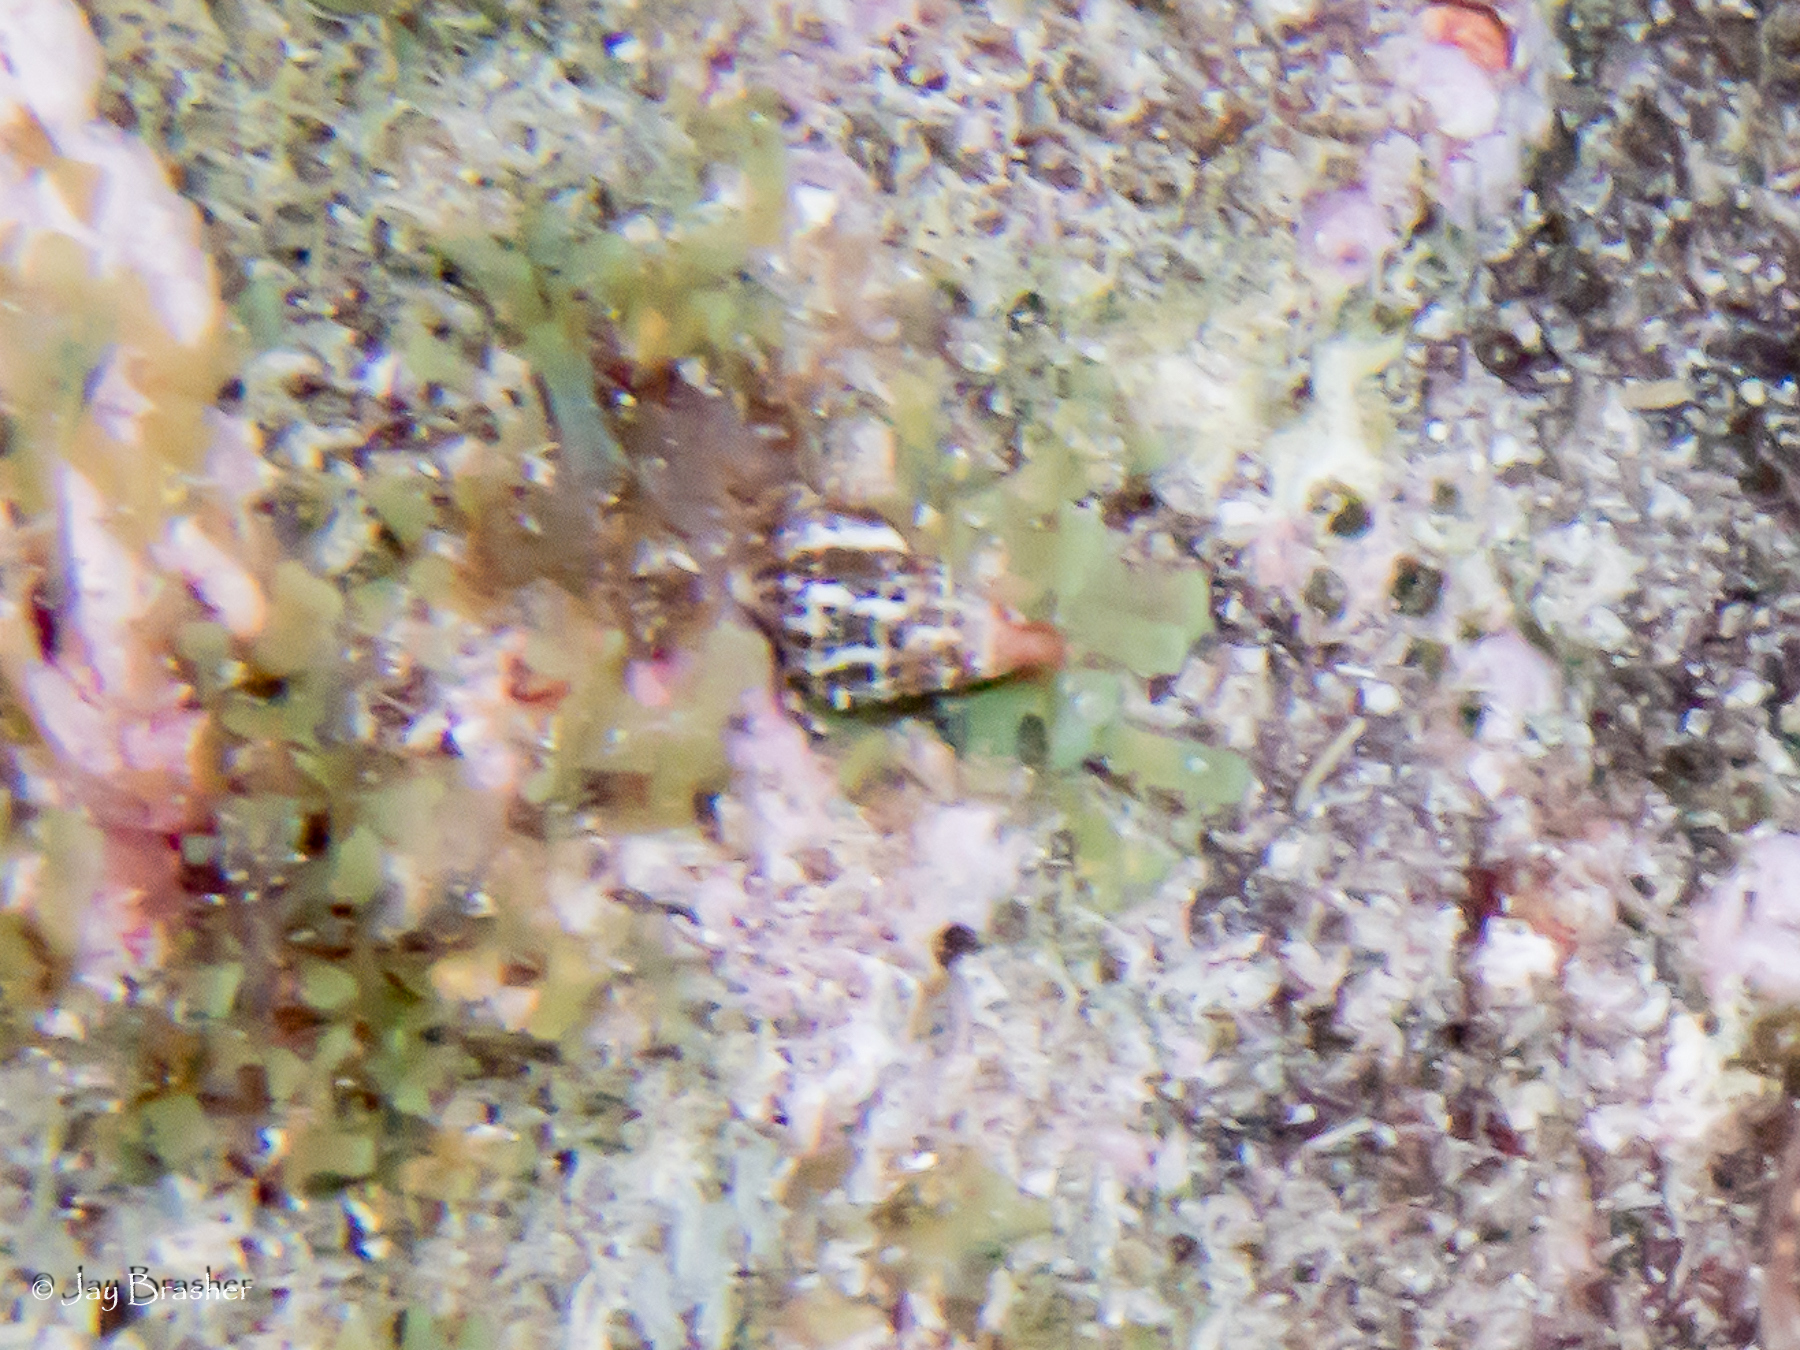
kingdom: Animalia
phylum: Mollusca
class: Gastropoda
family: Cerithiidae
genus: Cerithium
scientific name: Cerithium litteratum
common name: Stocky cerith
